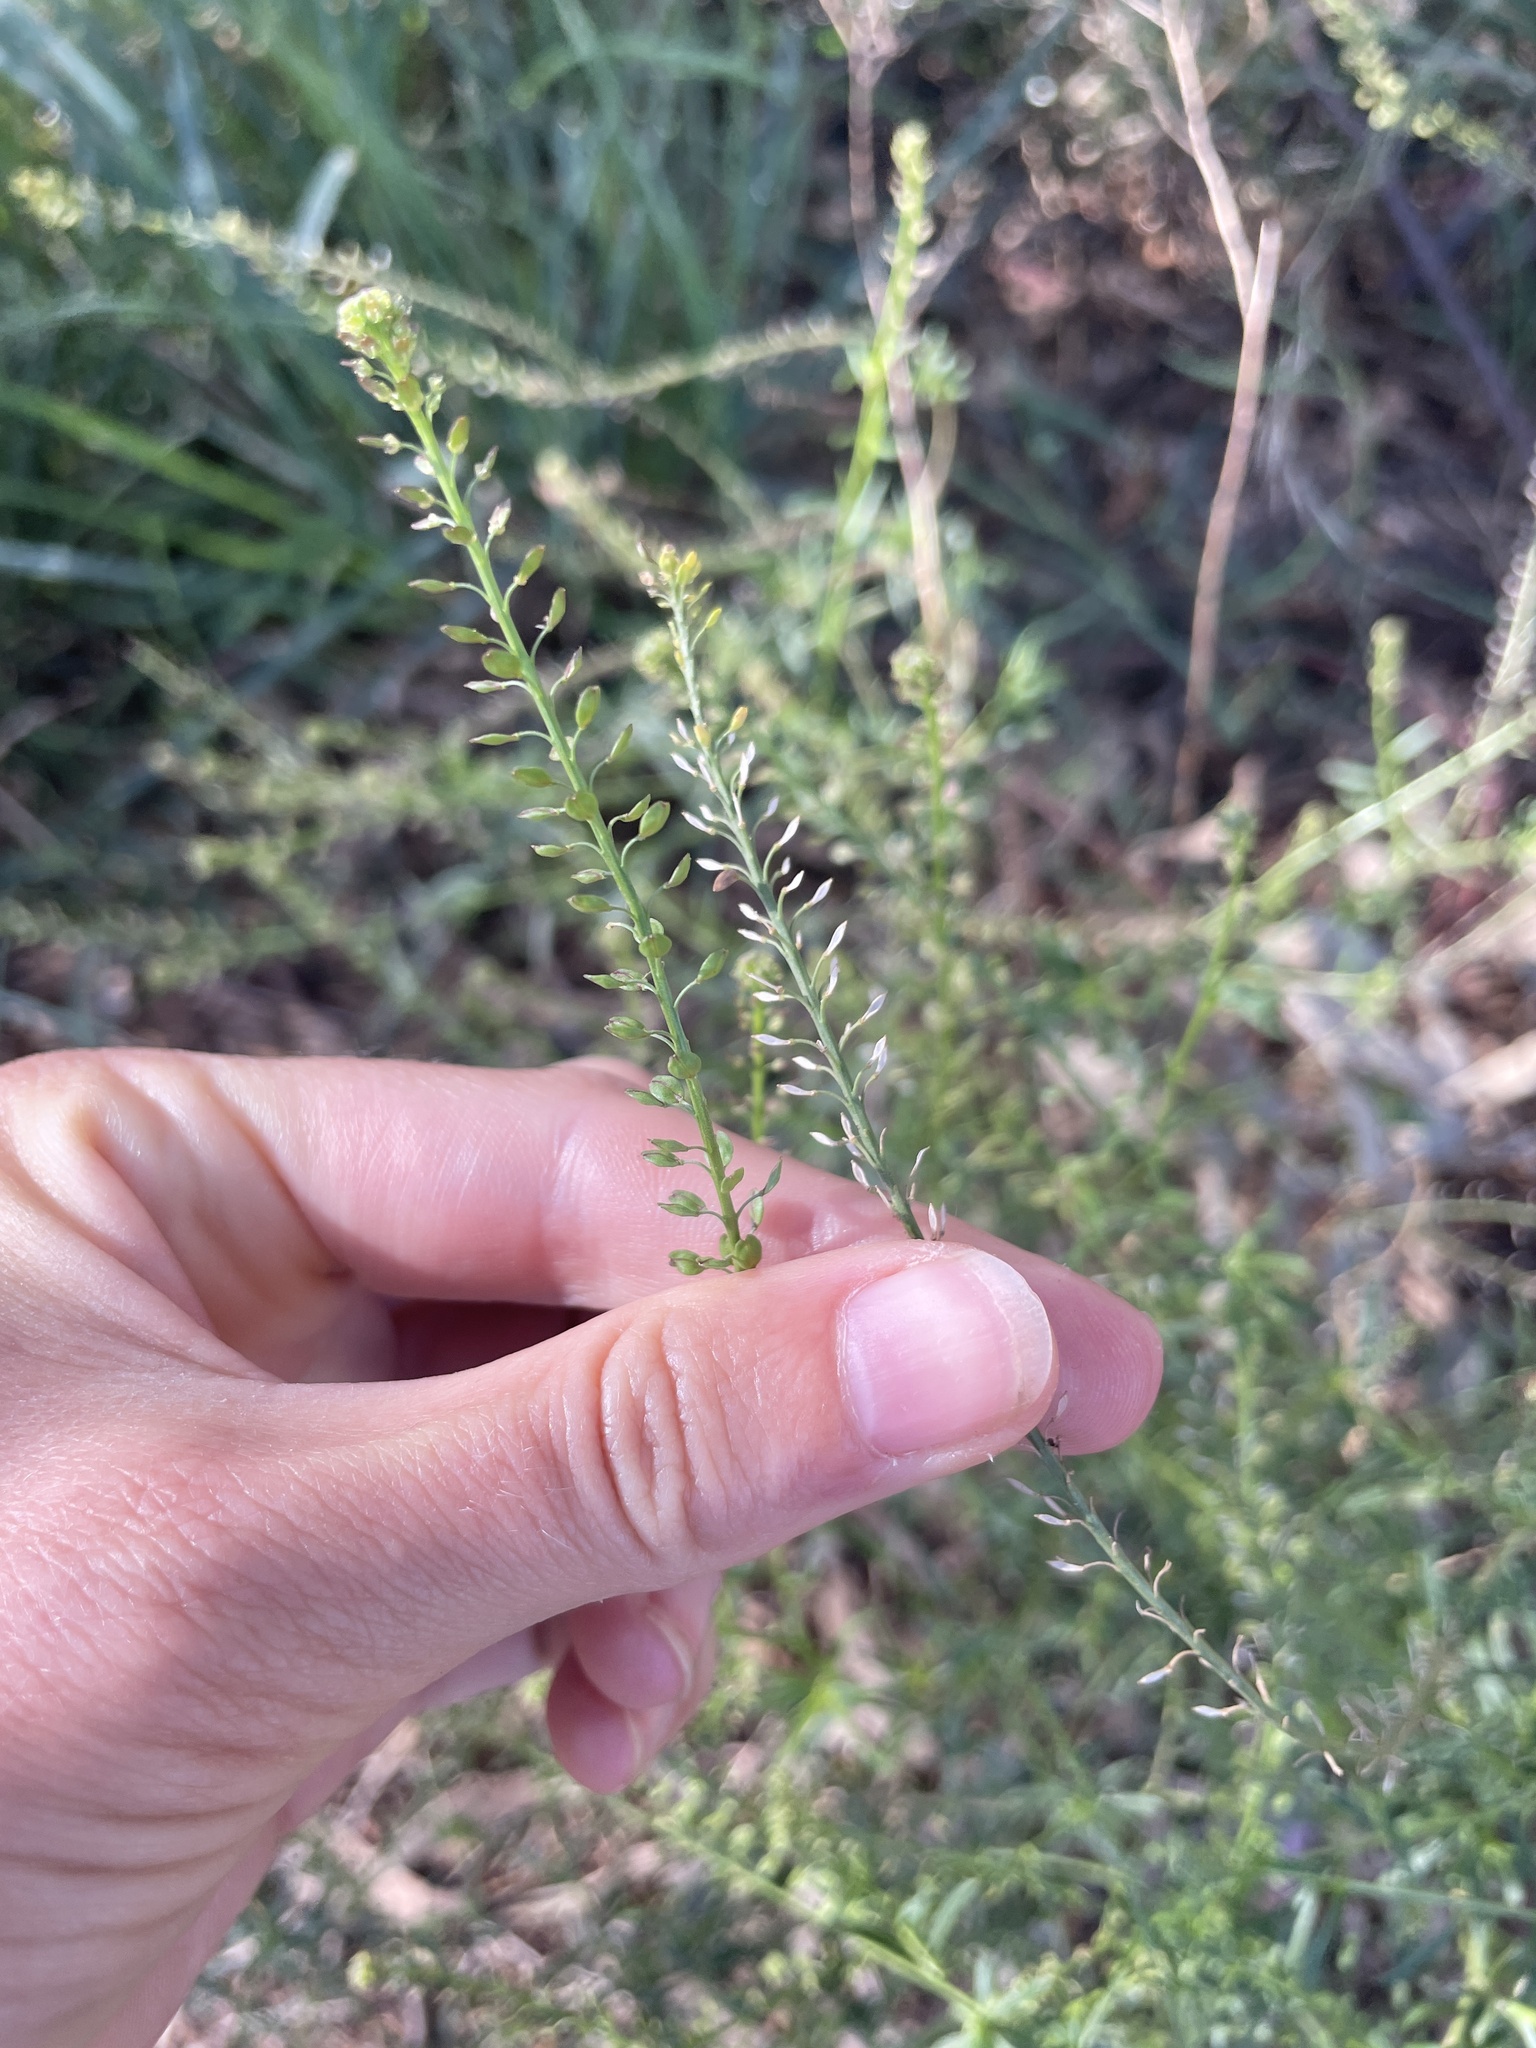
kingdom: Plantae
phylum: Tracheophyta
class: Magnoliopsida
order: Brassicales
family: Brassicaceae
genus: Lepidium
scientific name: Lepidium africanum
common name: African pepperwort
